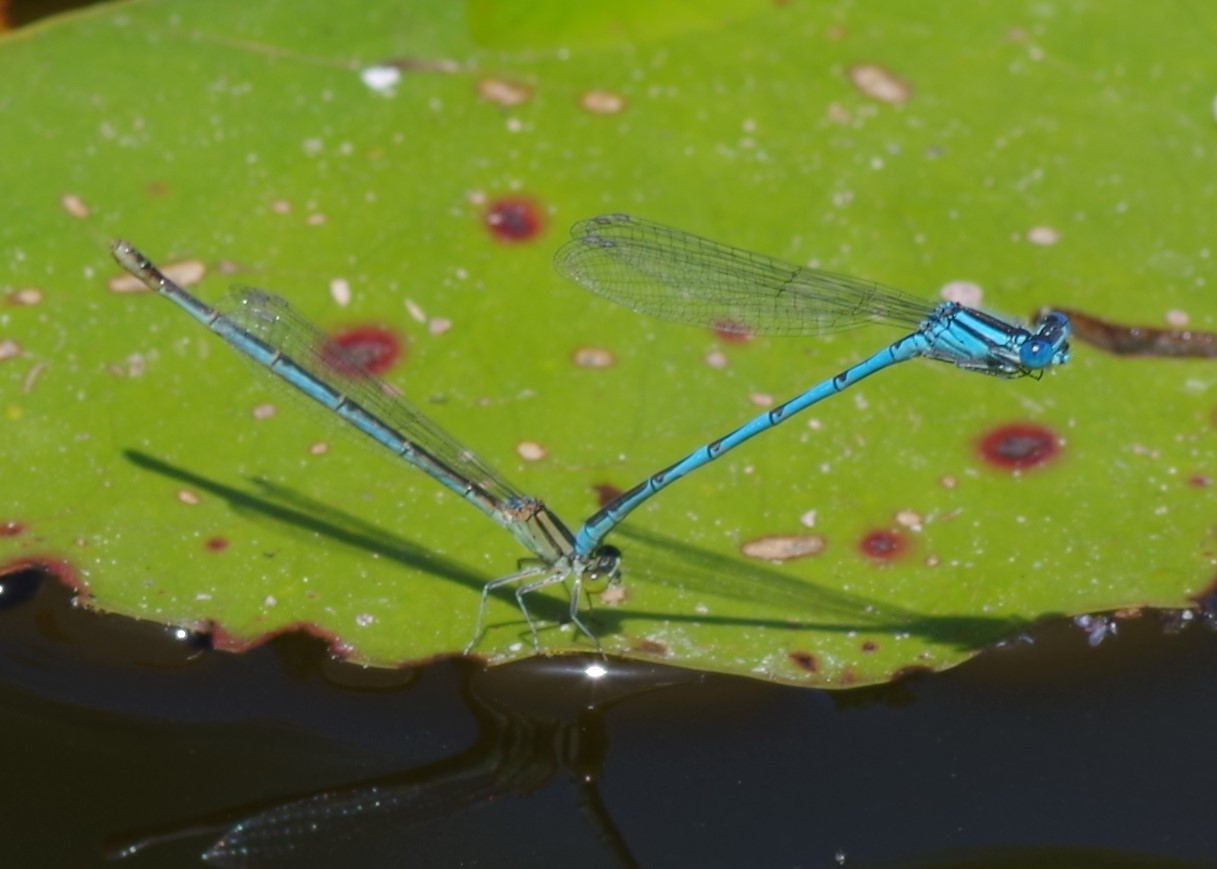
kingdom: Animalia
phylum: Arthropoda
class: Insecta
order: Odonata
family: Coenagrionidae
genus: Erythromma
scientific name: Erythromma lindenii
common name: Blue-eye
